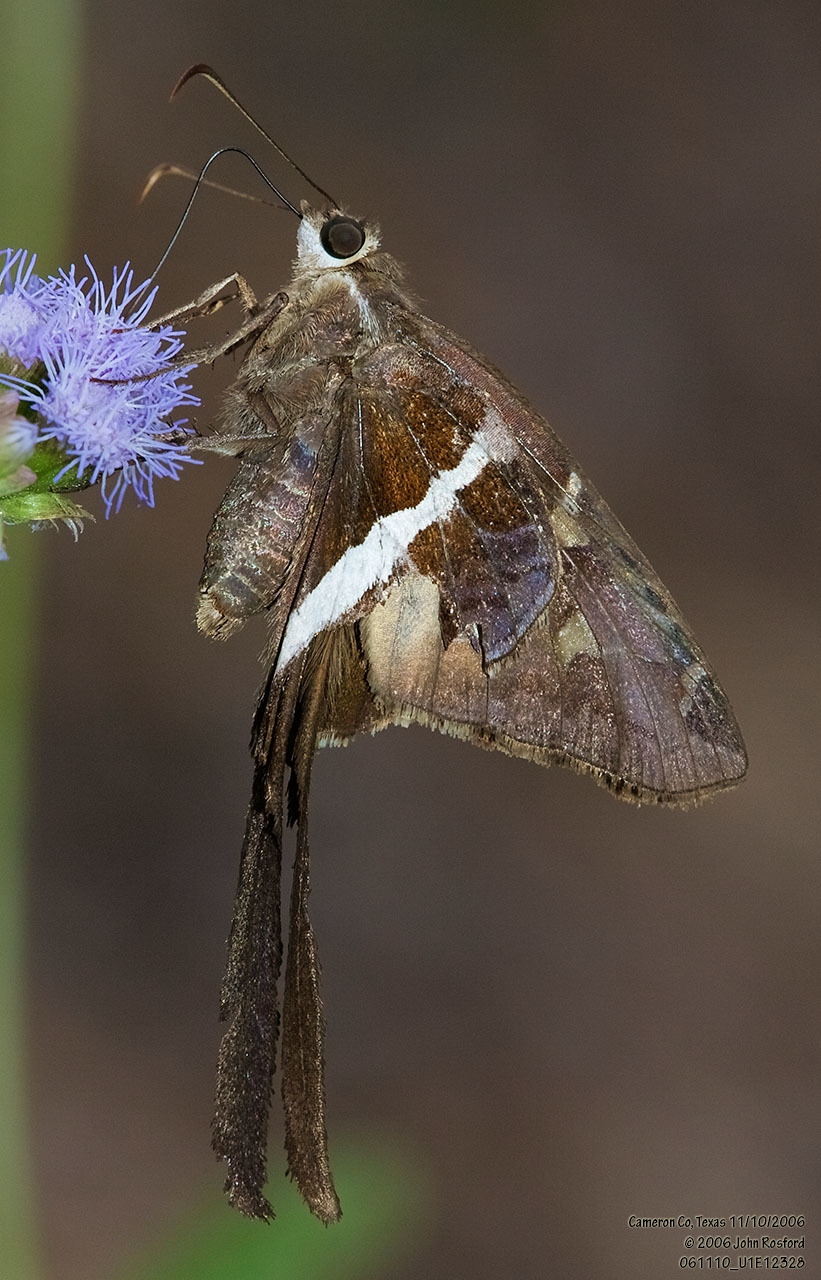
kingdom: Animalia
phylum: Arthropoda
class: Insecta
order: Lepidoptera
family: Hesperiidae
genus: Chioides
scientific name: Chioides catillus
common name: Silverbanded skipper
